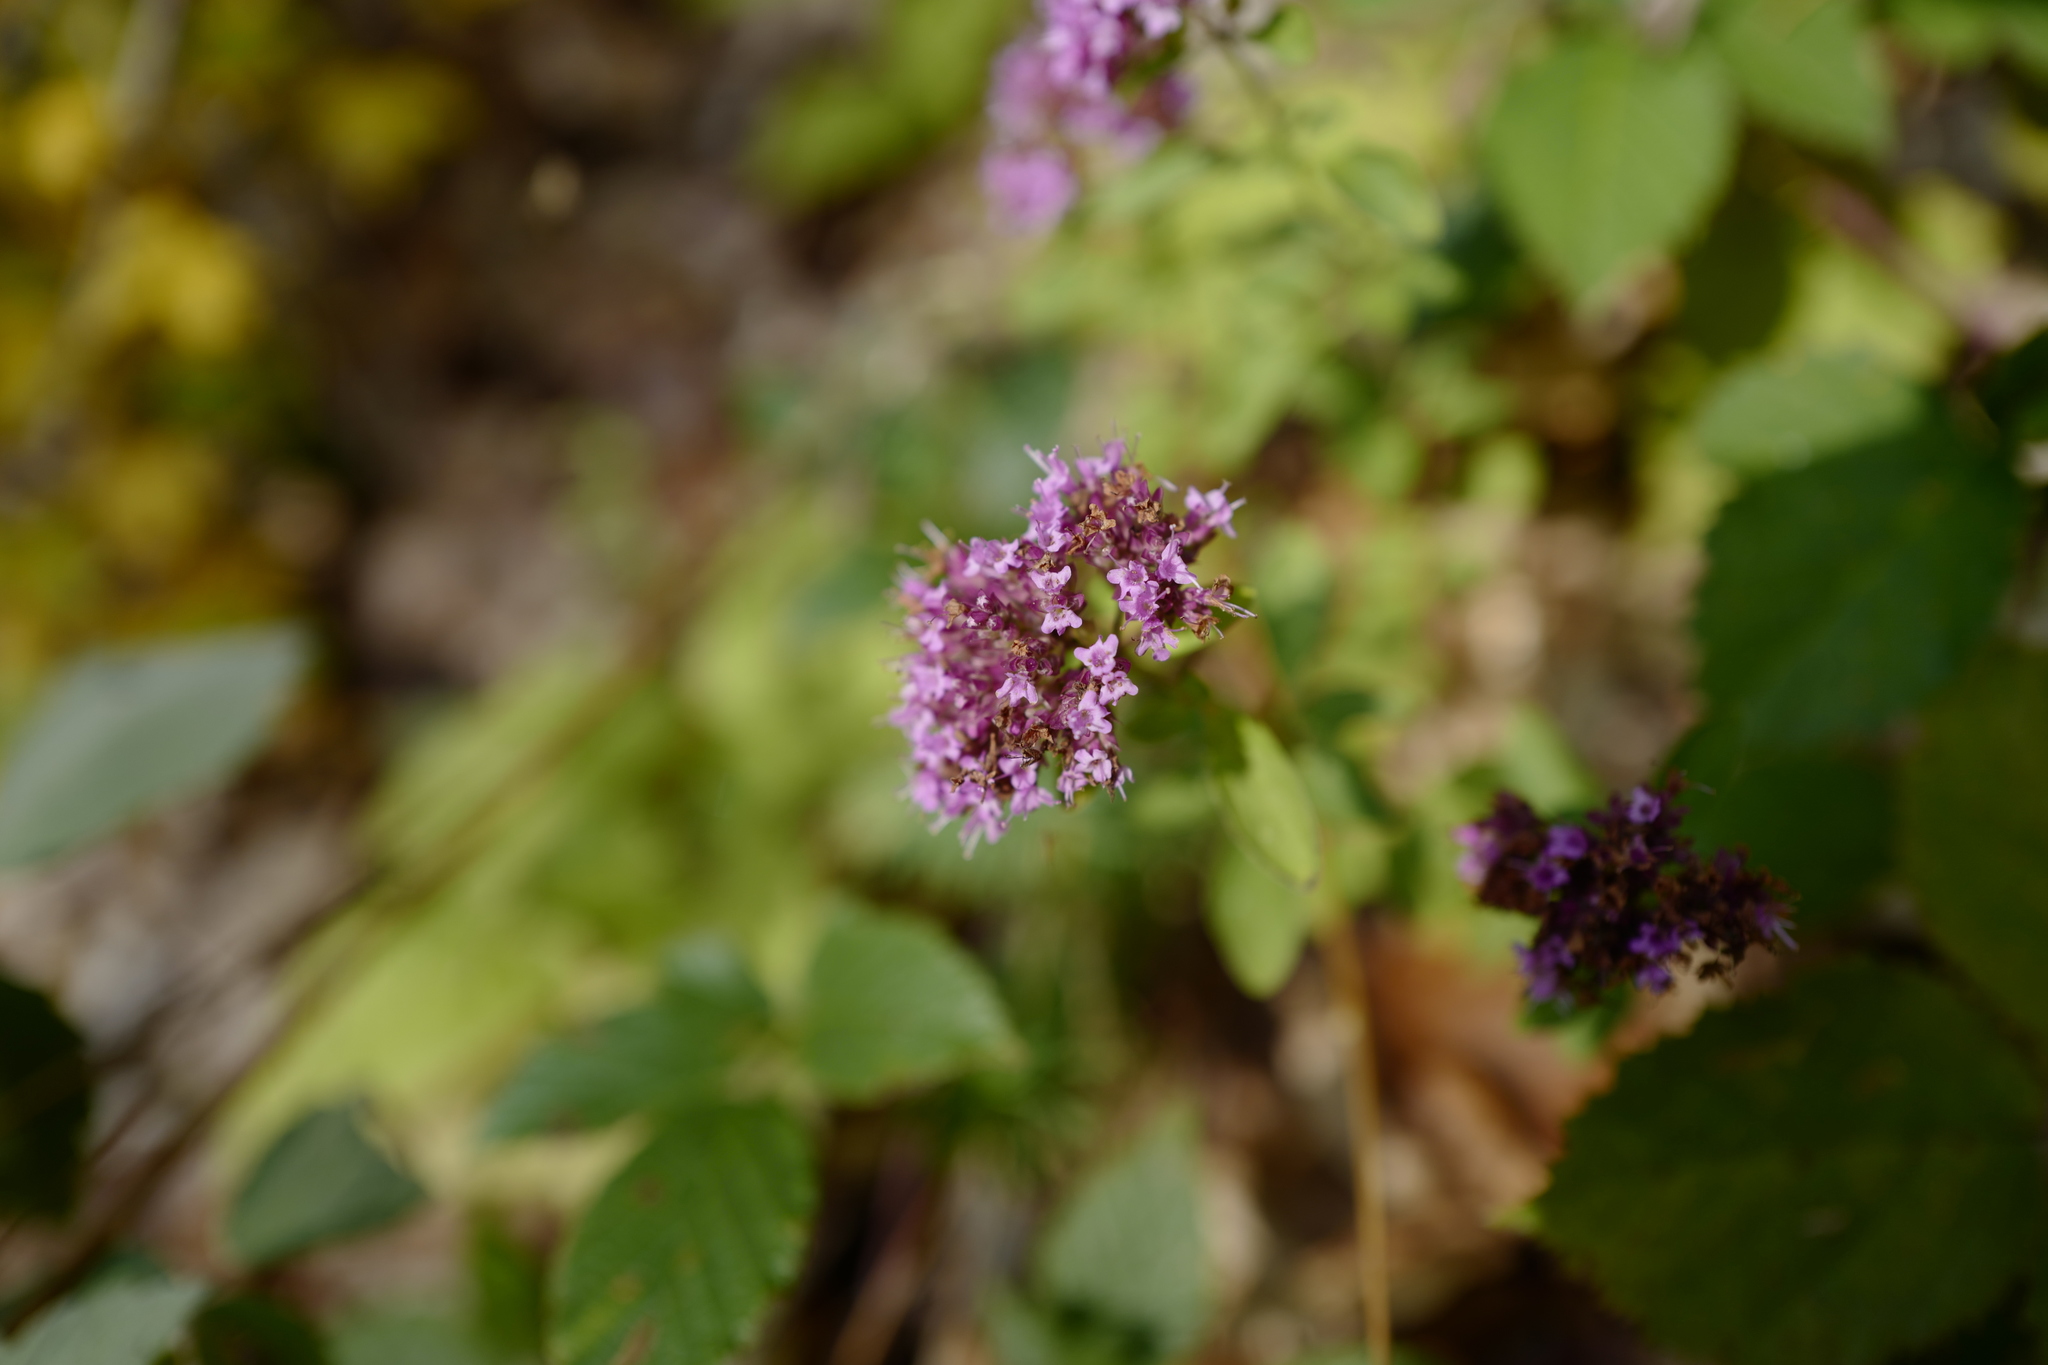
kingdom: Plantae
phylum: Tracheophyta
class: Magnoliopsida
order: Lamiales
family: Lamiaceae
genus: Origanum
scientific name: Origanum vulgare
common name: Wild marjoram
